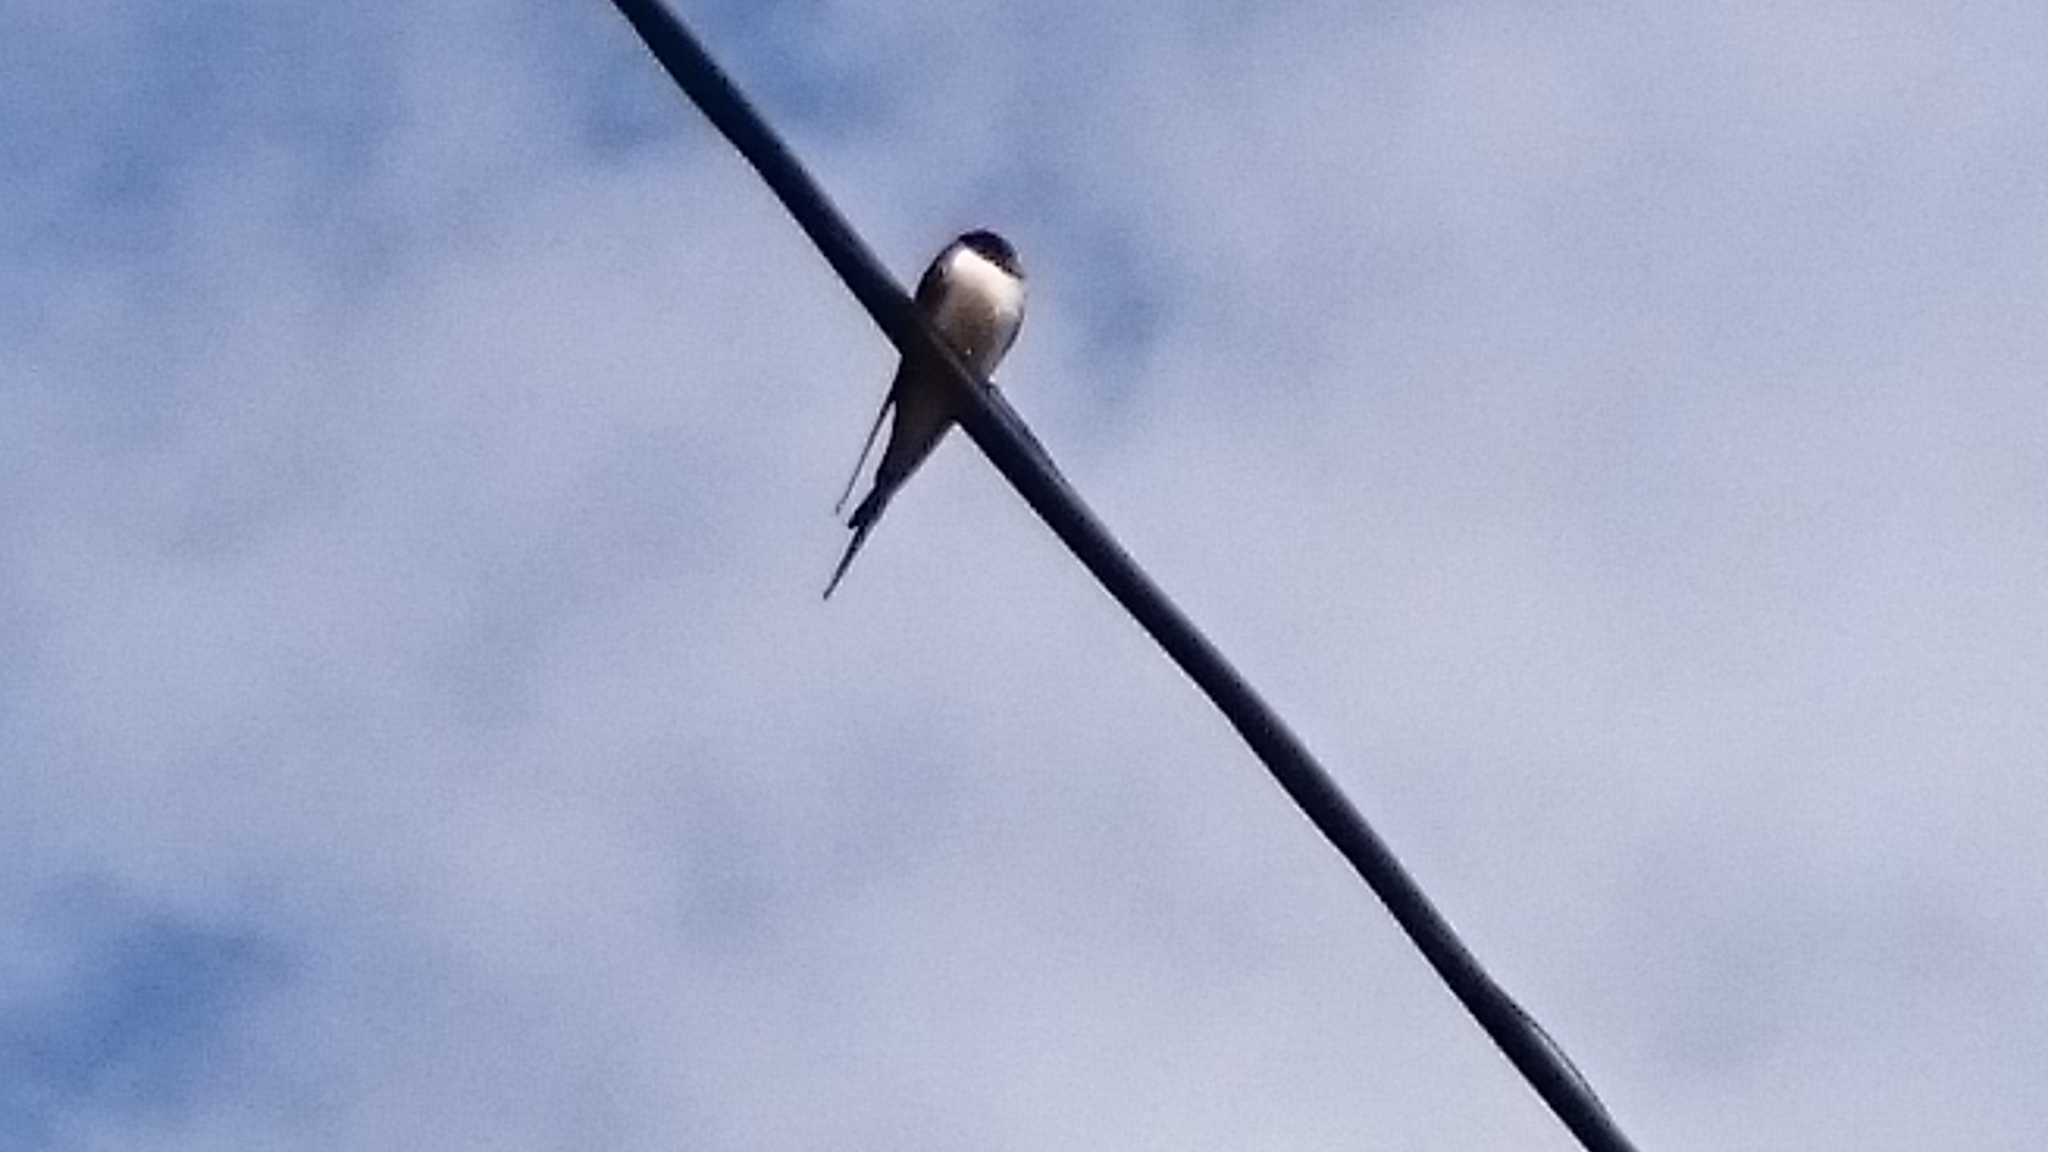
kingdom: Animalia
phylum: Chordata
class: Aves
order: Passeriformes
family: Hirundinidae
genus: Hirundo
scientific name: Hirundo rustica
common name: Barn swallow
